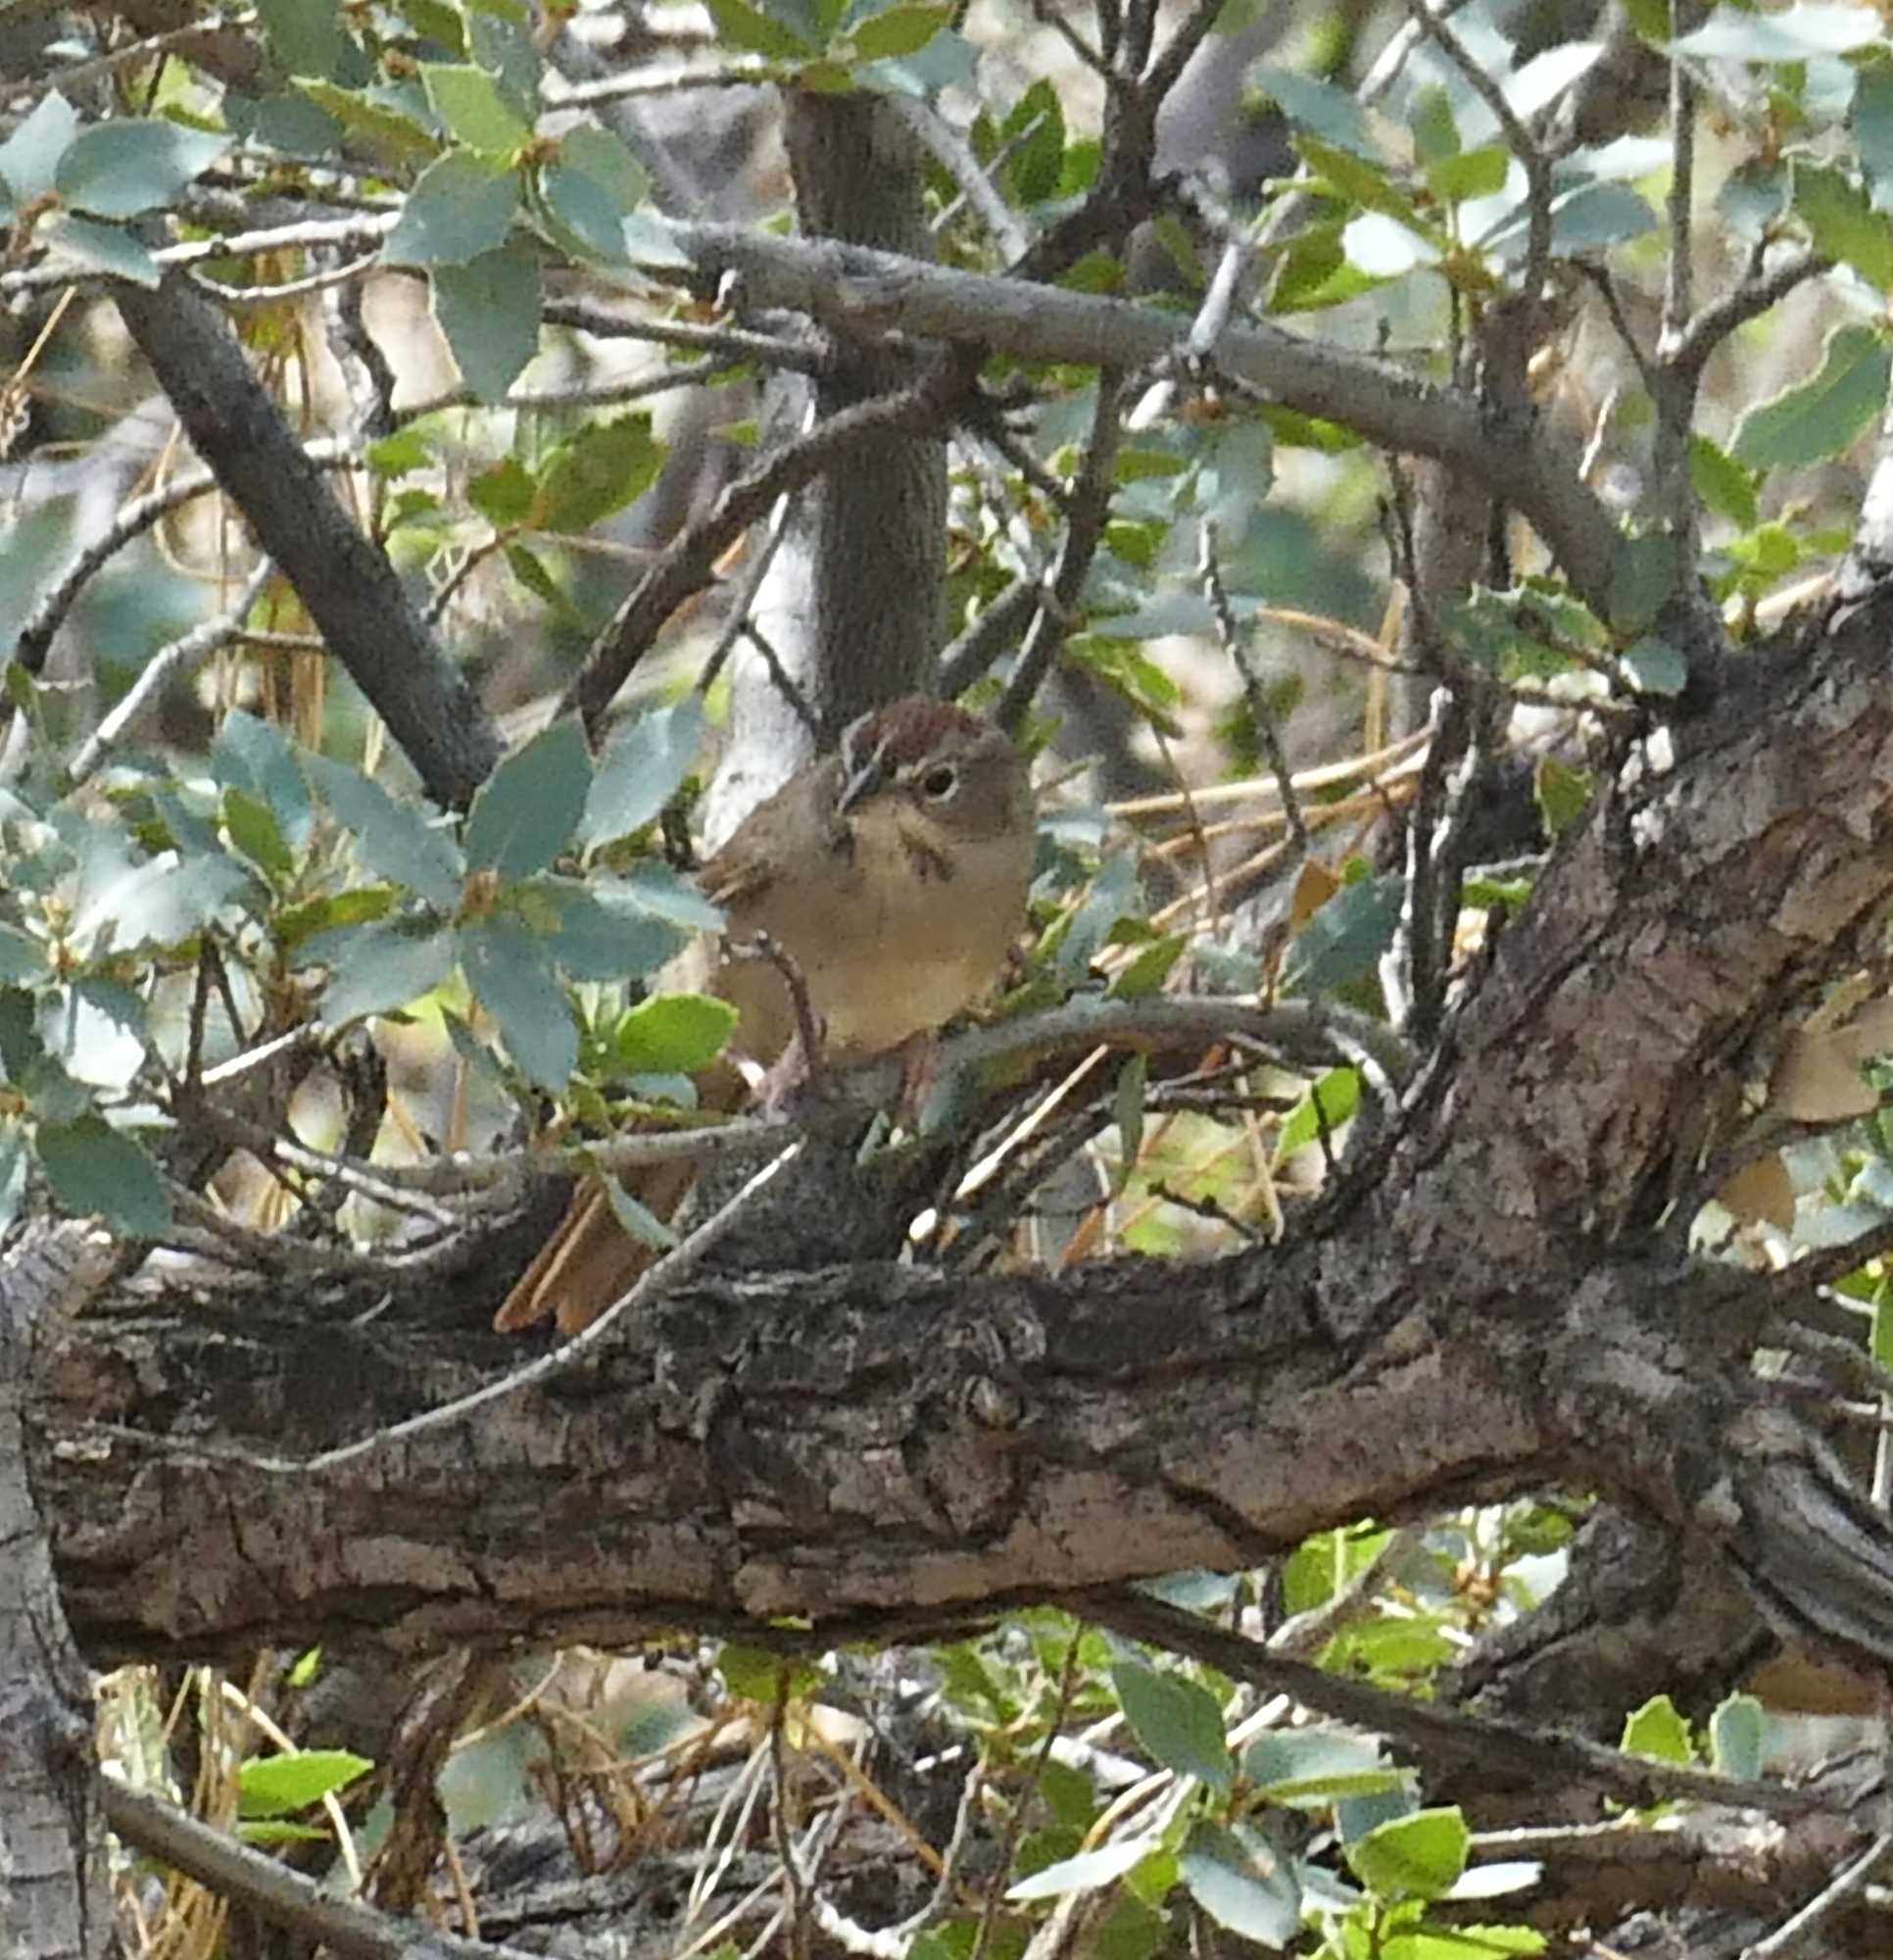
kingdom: Animalia
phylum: Chordata
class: Aves
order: Passeriformes
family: Passerellidae
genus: Aimophila
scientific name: Aimophila ruficeps
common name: Rufous-crowned sparrow
